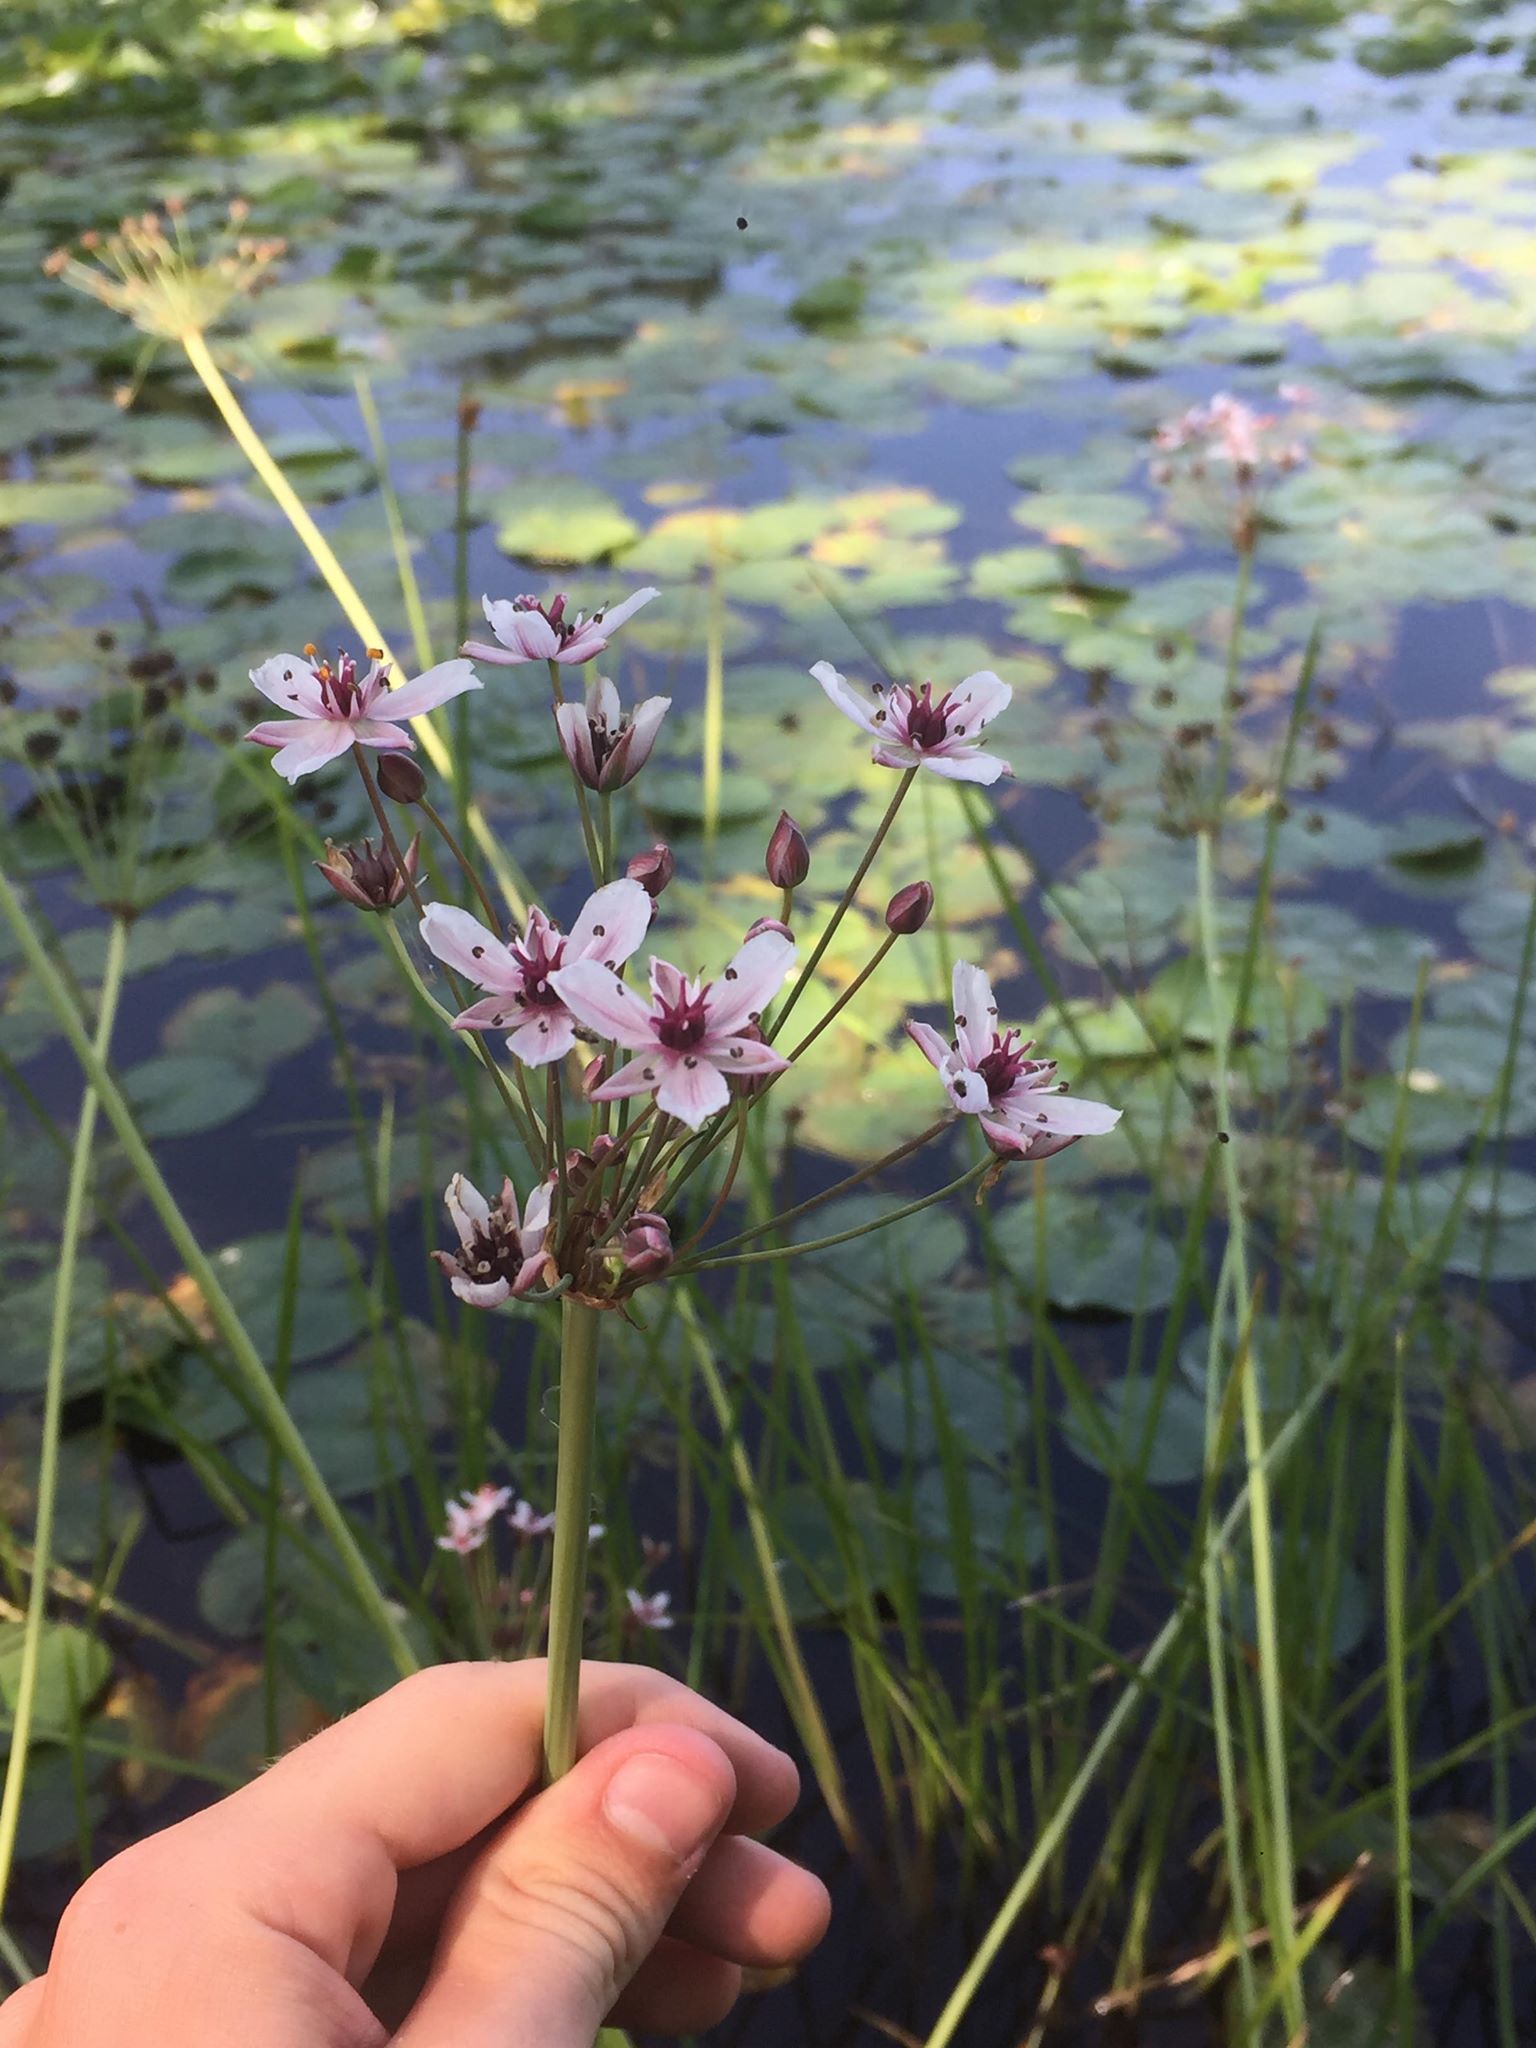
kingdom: Plantae
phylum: Tracheophyta
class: Liliopsida
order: Alismatales
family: Butomaceae
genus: Butomus
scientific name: Butomus umbellatus
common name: Flowering-rush
